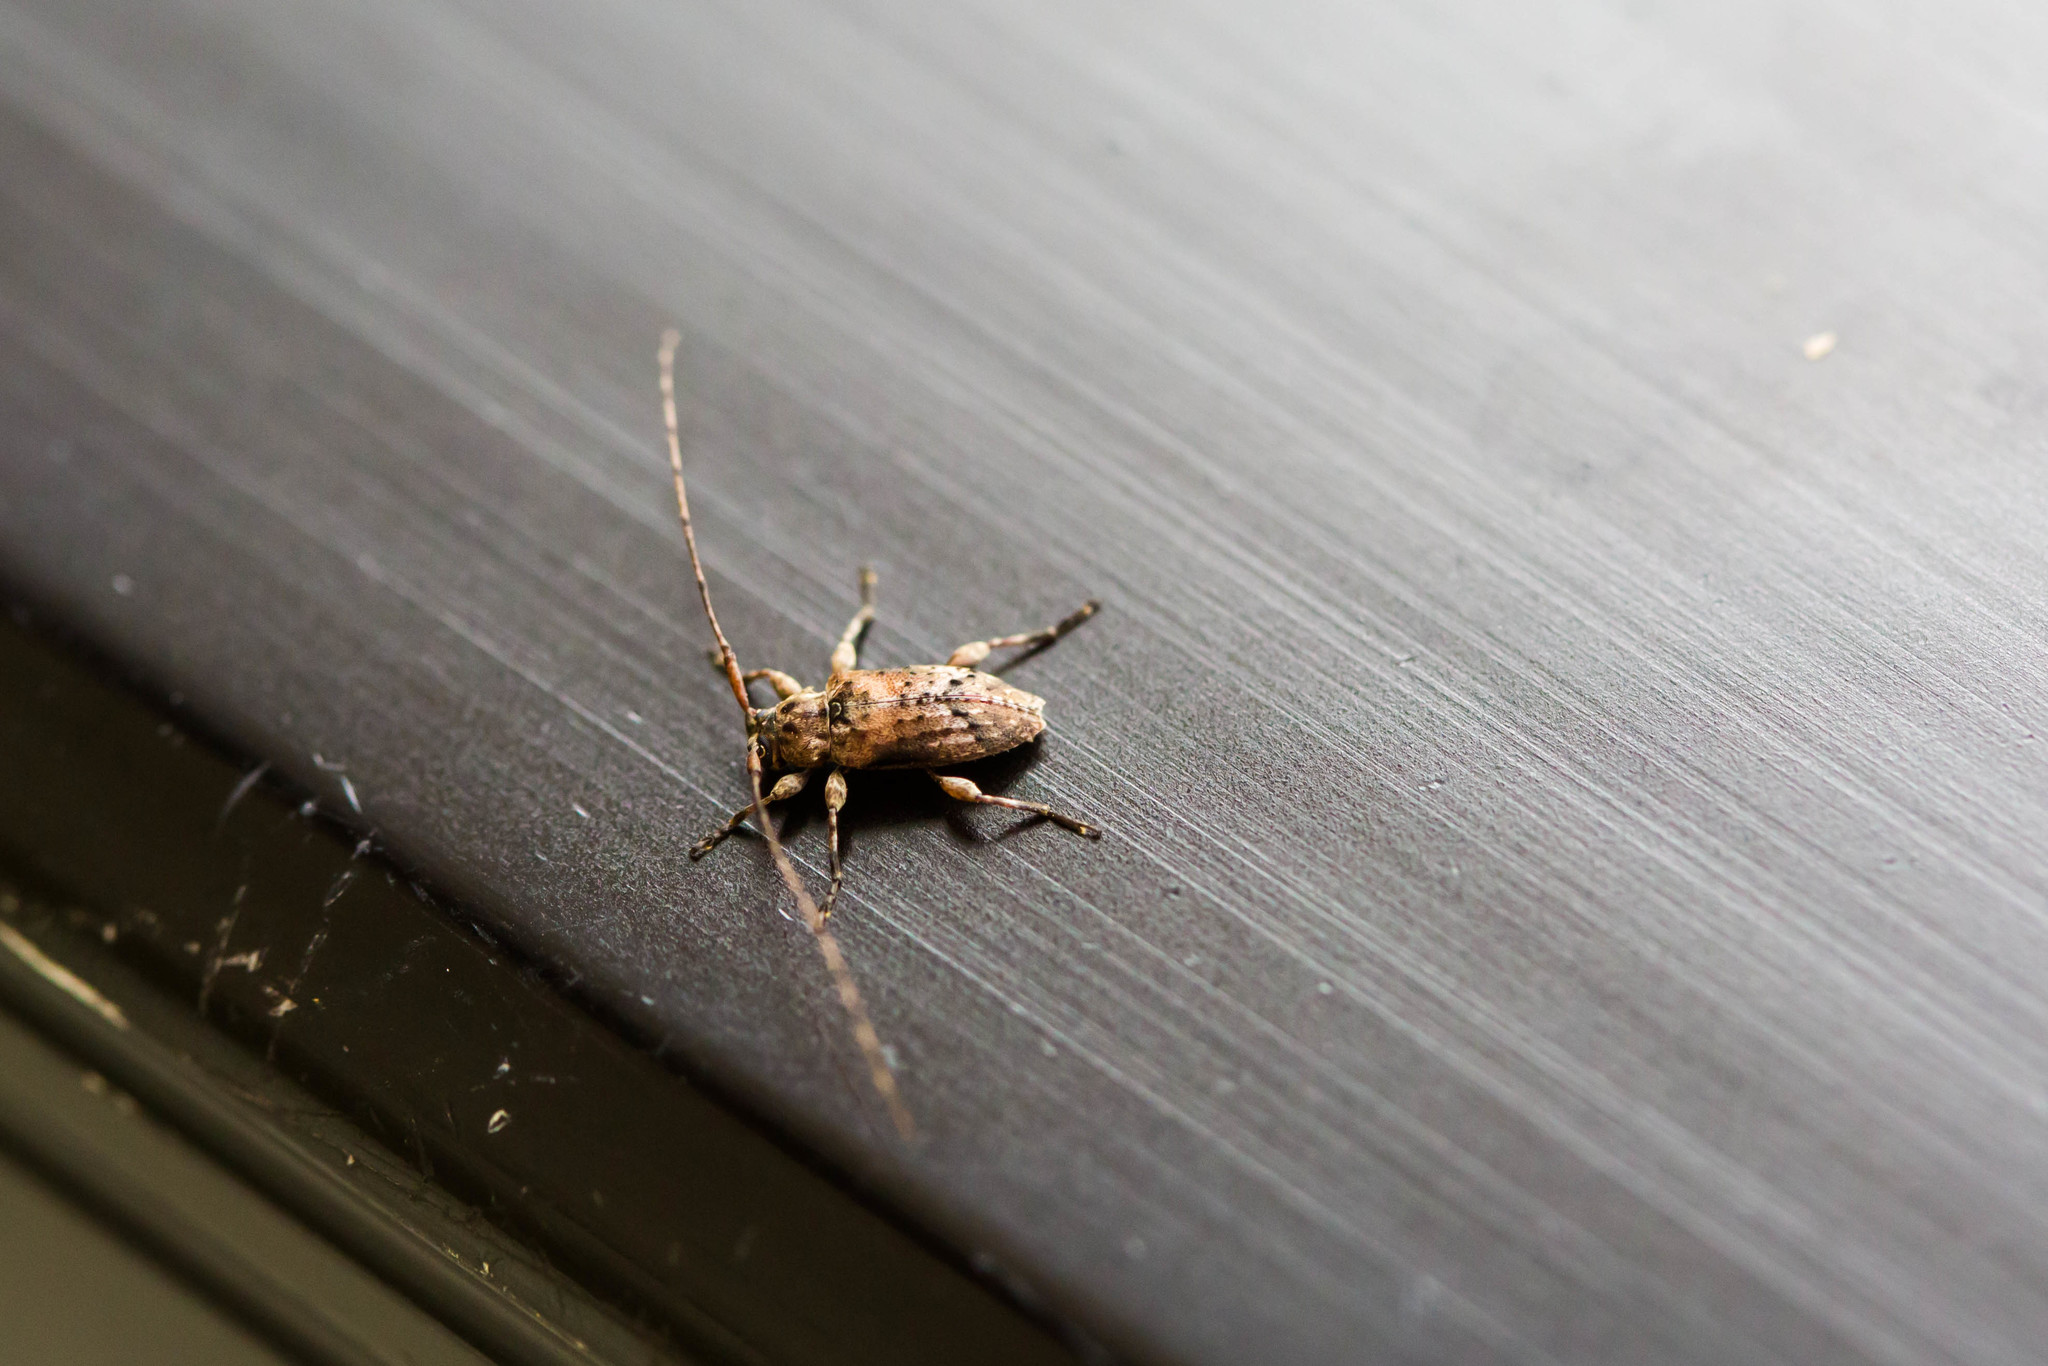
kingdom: Animalia
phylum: Arthropoda
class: Insecta
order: Coleoptera
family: Cerambycidae
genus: Sternidius
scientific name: Sternidius alpha
